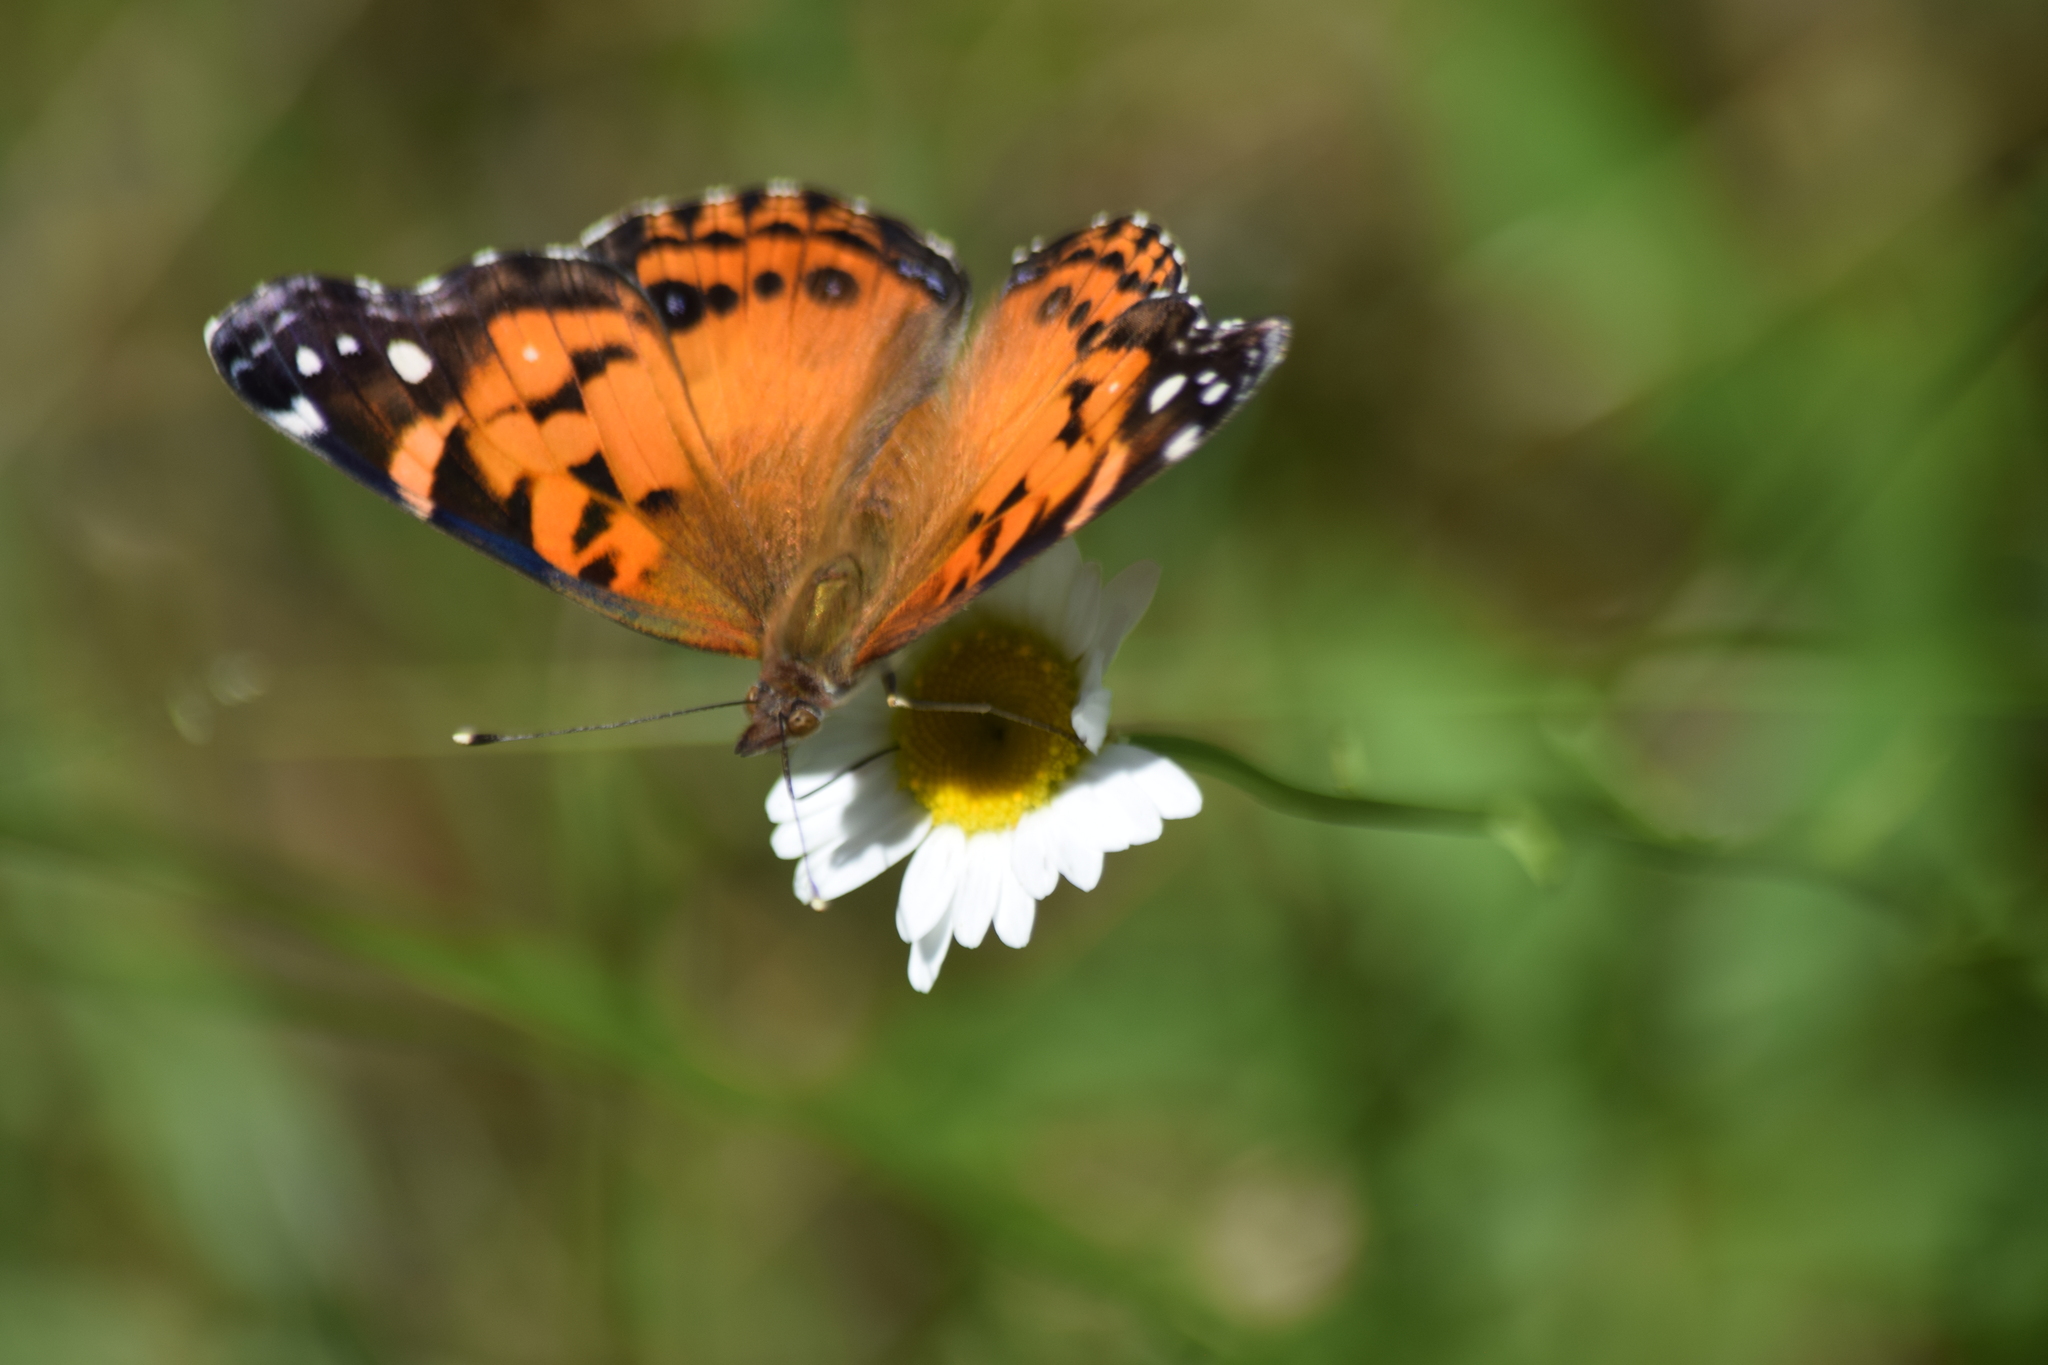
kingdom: Animalia
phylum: Arthropoda
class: Insecta
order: Lepidoptera
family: Nymphalidae
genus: Vanessa
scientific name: Vanessa virginiensis
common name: American lady
